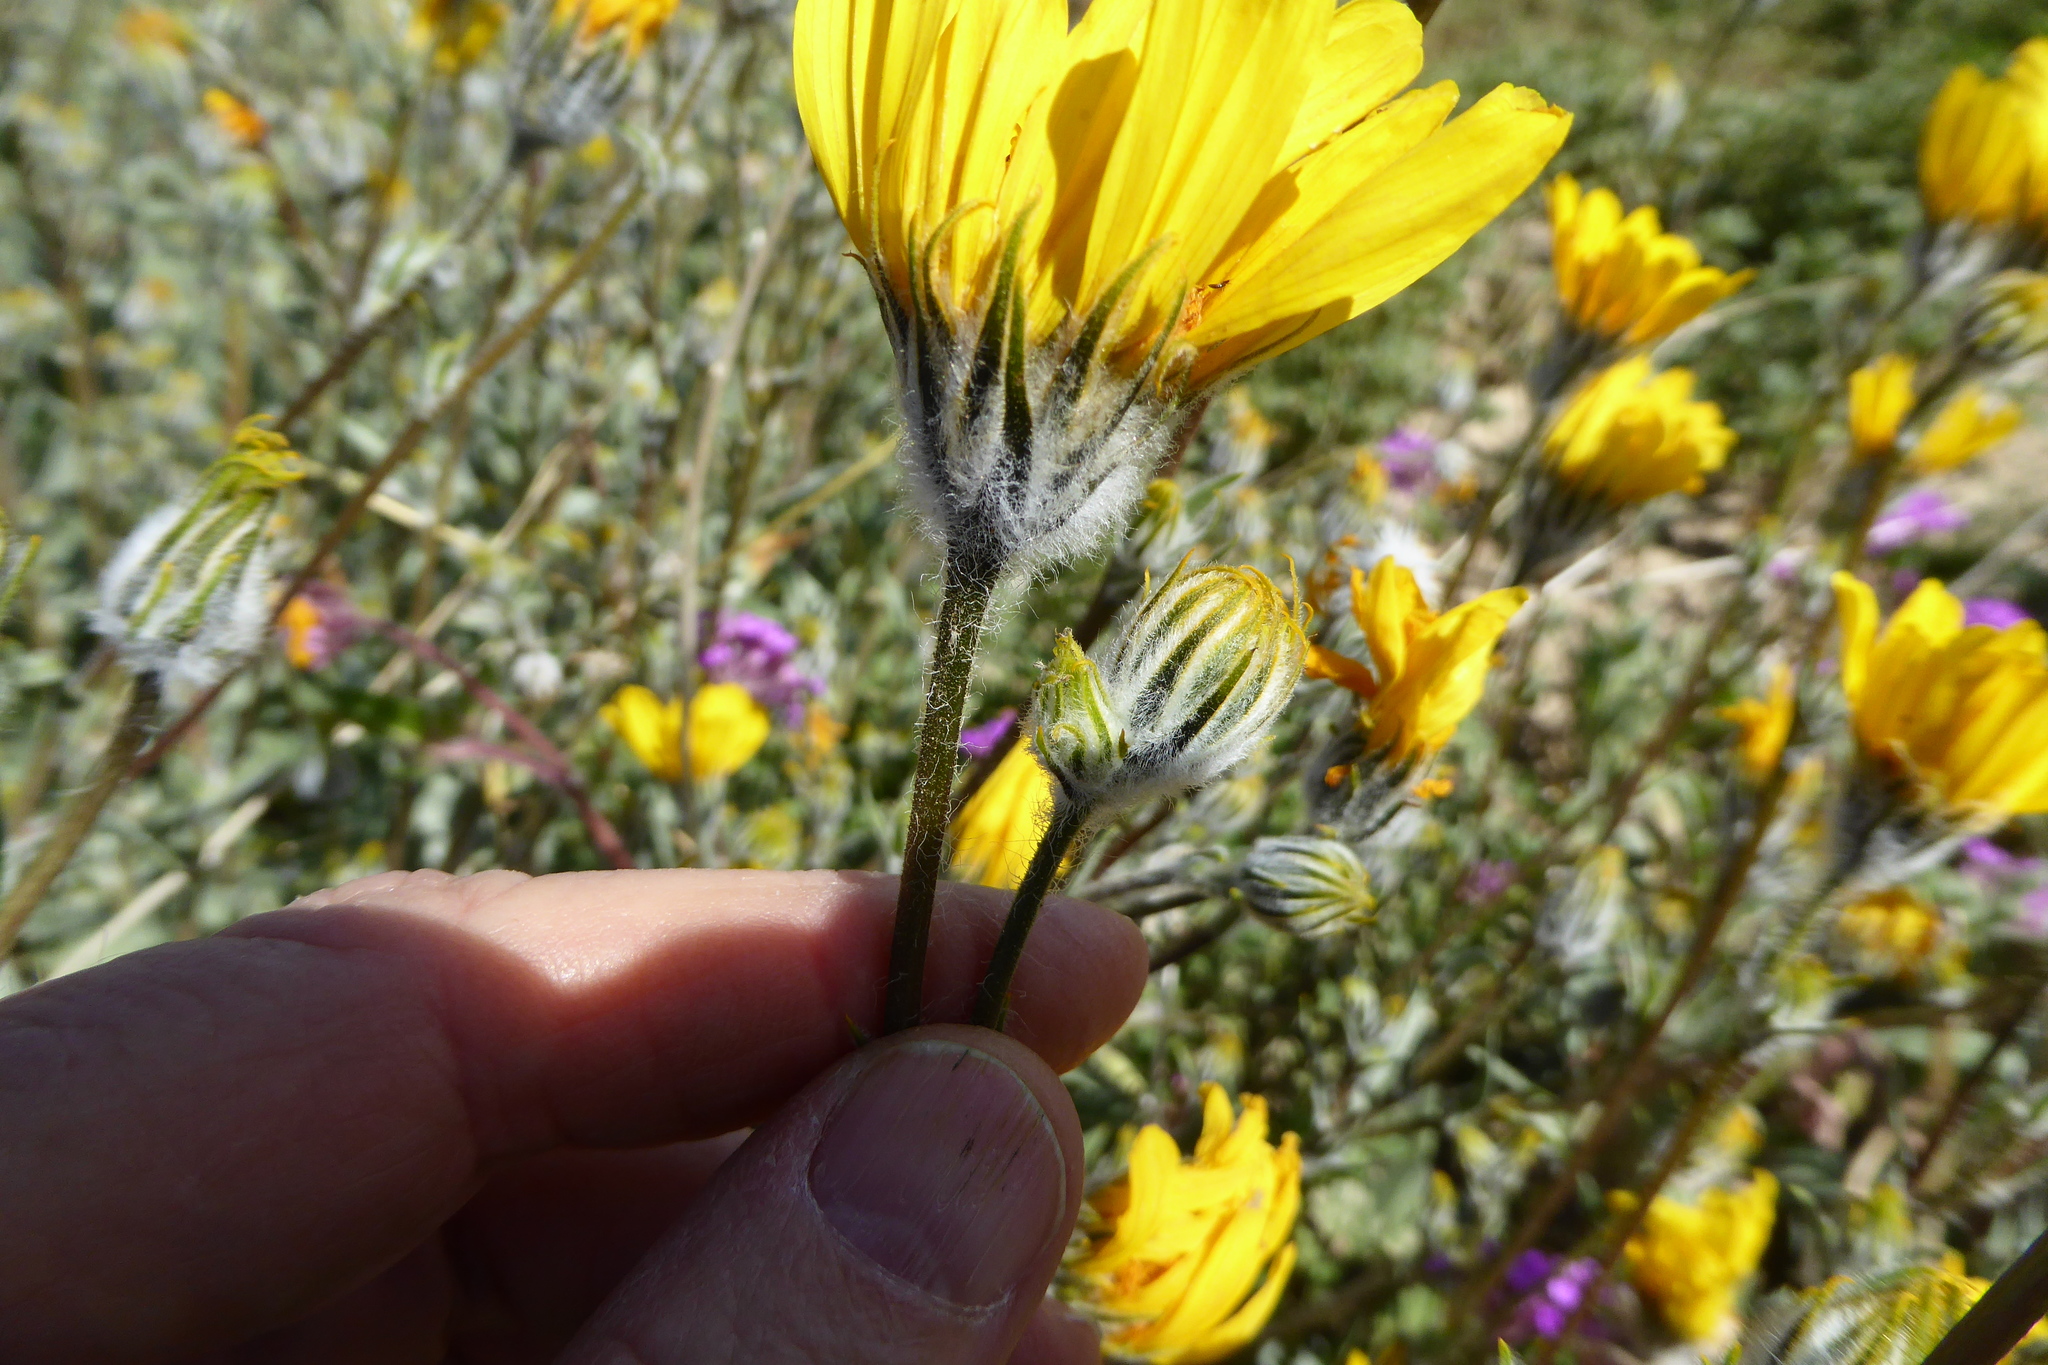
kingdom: Plantae
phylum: Tracheophyta
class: Magnoliopsida
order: Asterales
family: Asteraceae
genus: Geraea
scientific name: Geraea canescens
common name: Desert-gold
